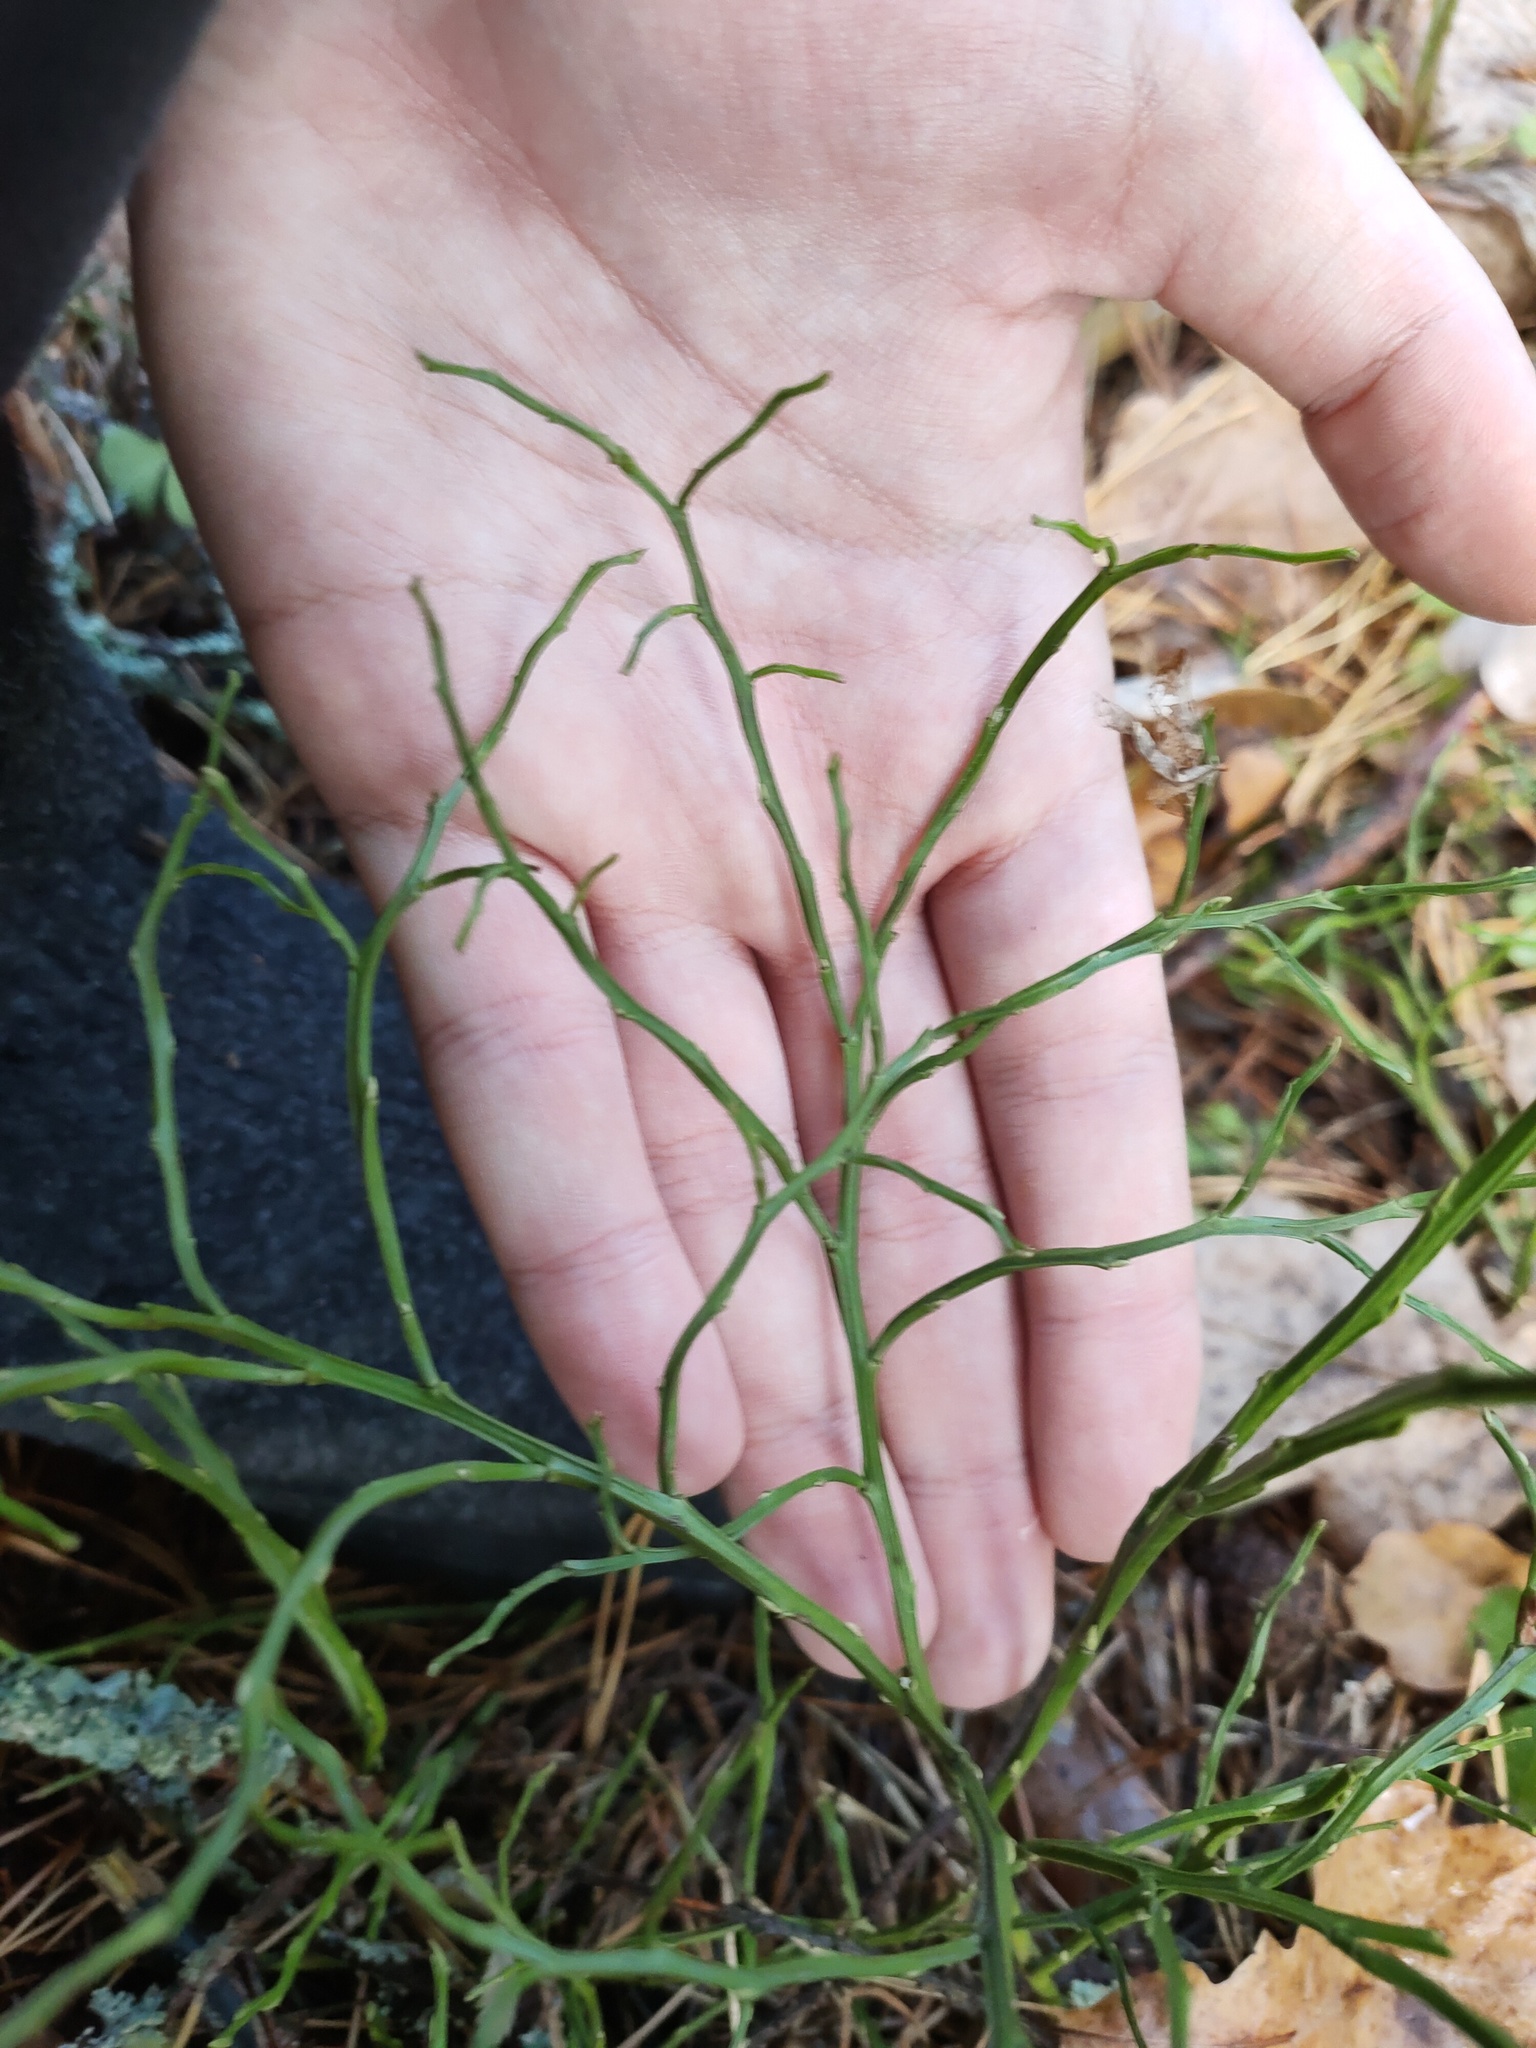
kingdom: Plantae
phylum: Tracheophyta
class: Magnoliopsida
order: Ericales
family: Ericaceae
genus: Vaccinium
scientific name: Vaccinium myrtillus
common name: Bilberry
